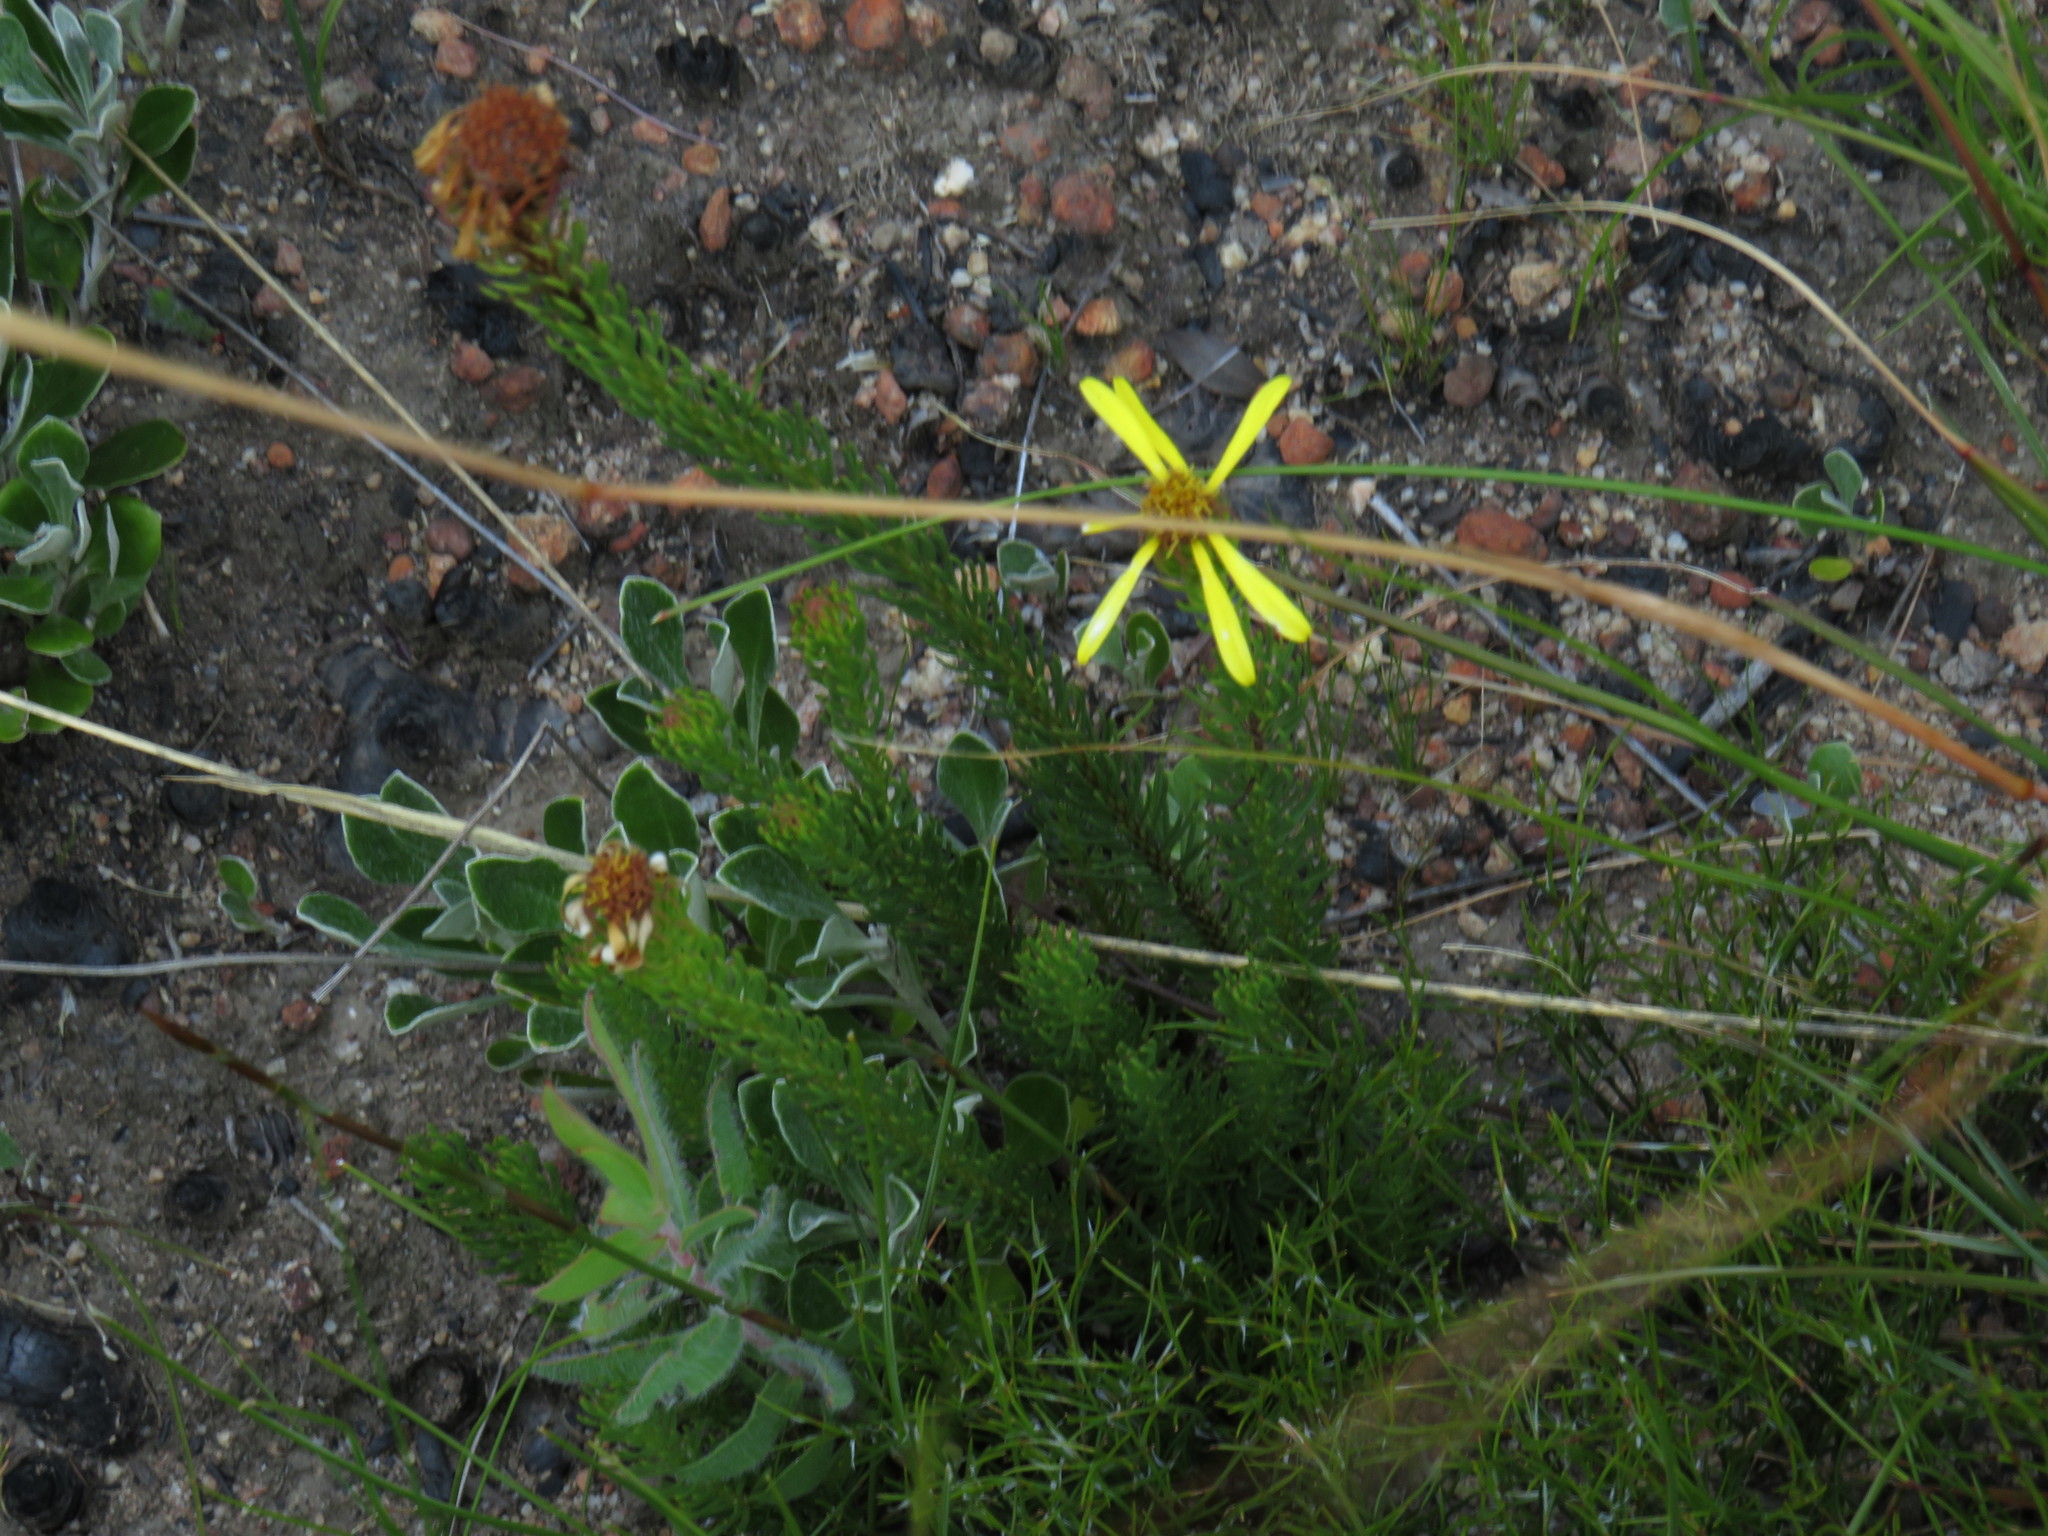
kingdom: Plantae
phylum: Tracheophyta
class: Magnoliopsida
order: Asterales
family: Asteraceae
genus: Senecio
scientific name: Senecio pinifolius
